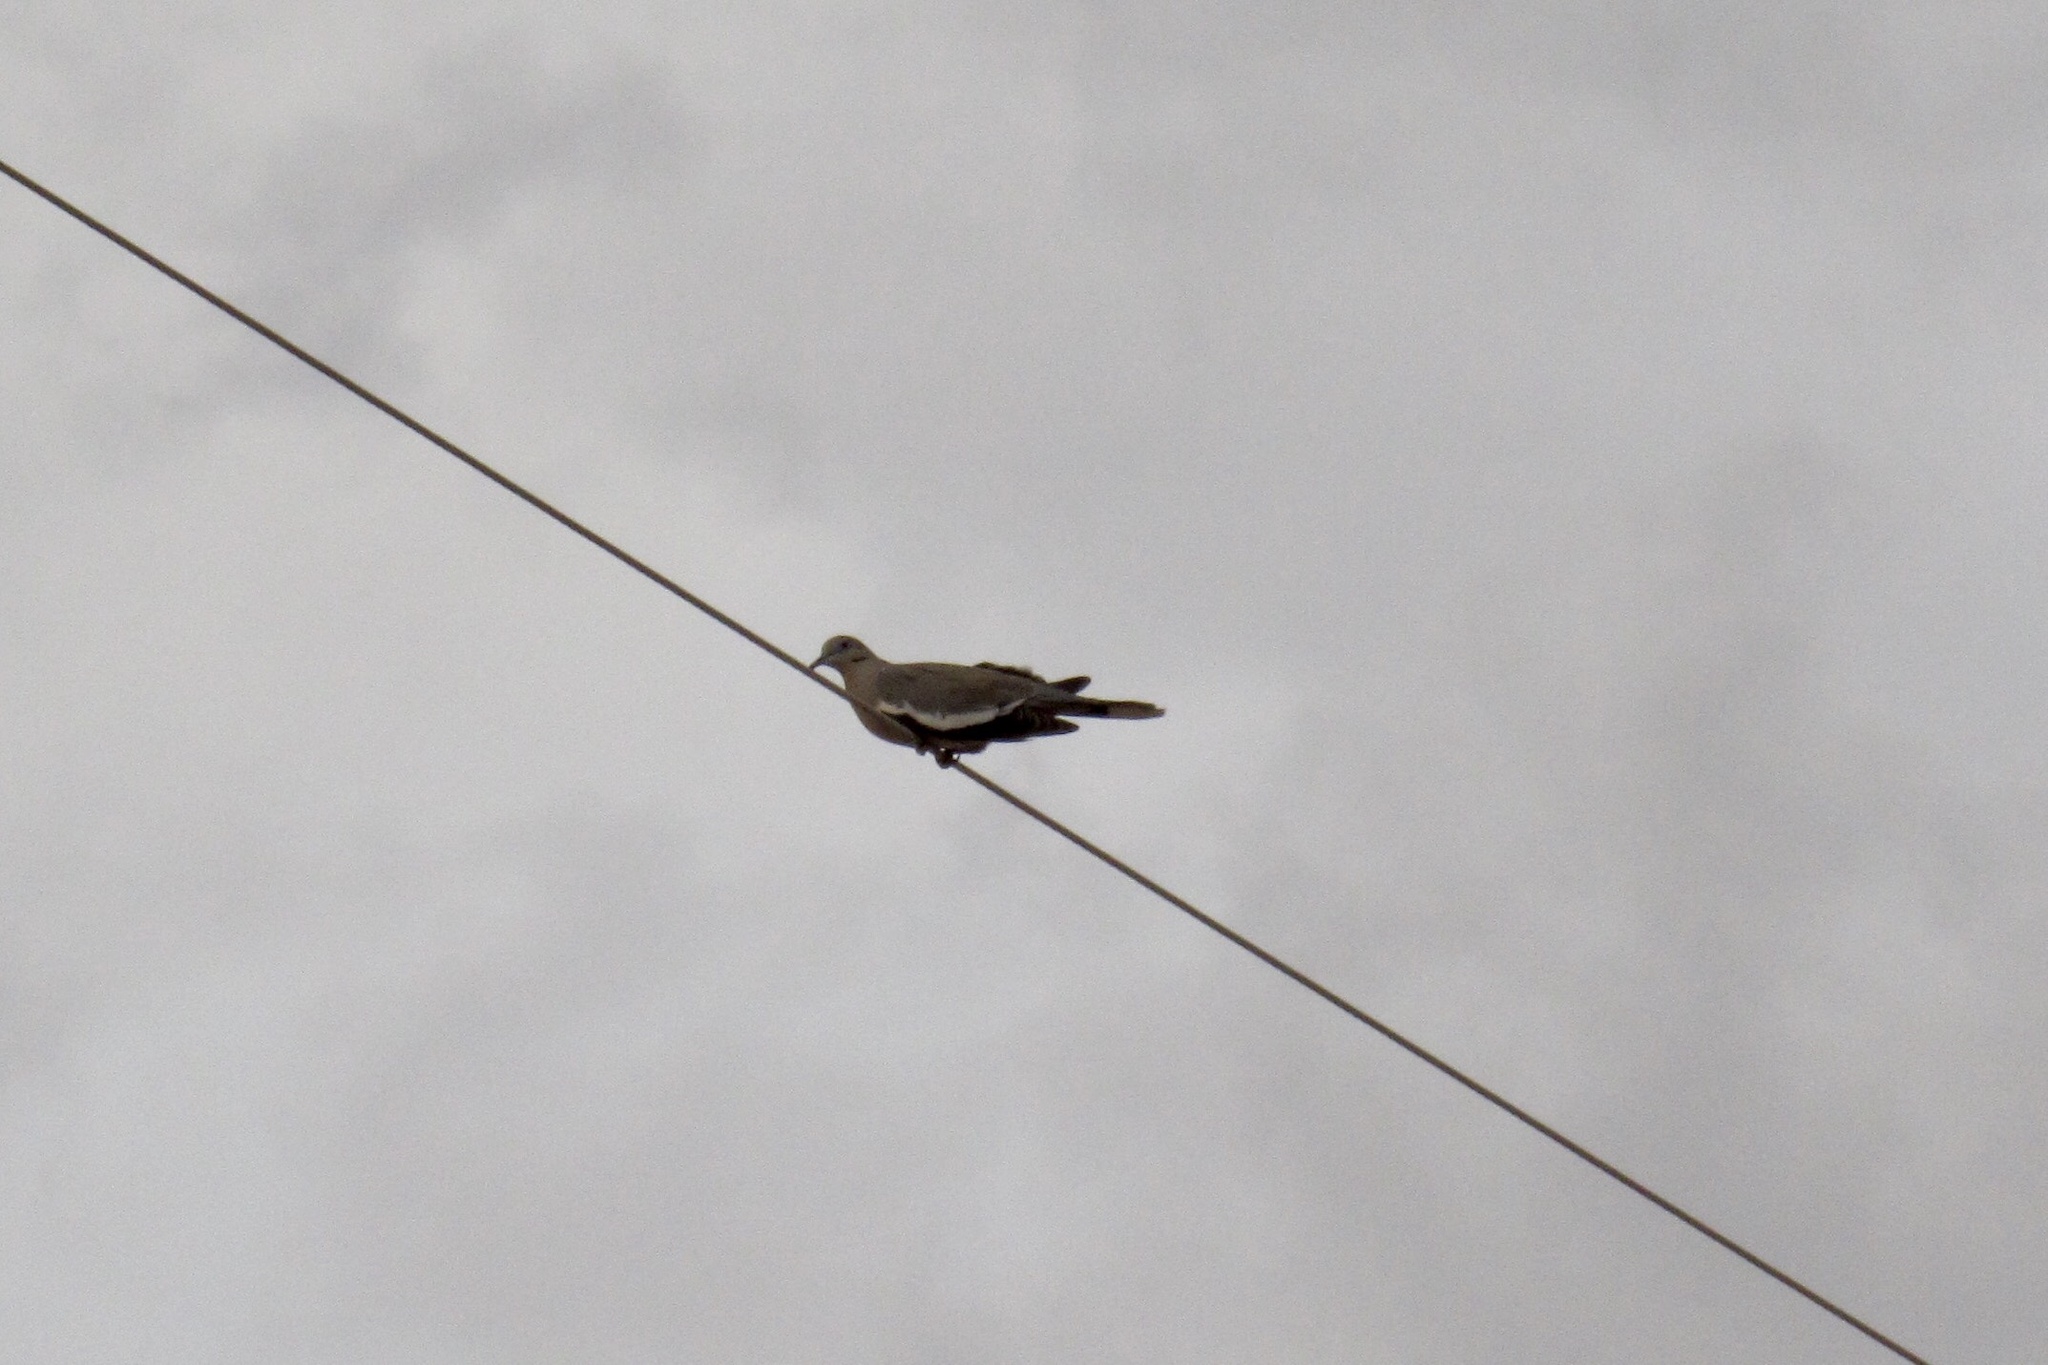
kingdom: Animalia
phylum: Chordata
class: Aves
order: Columbiformes
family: Columbidae
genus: Zenaida
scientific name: Zenaida asiatica
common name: White-winged dove
